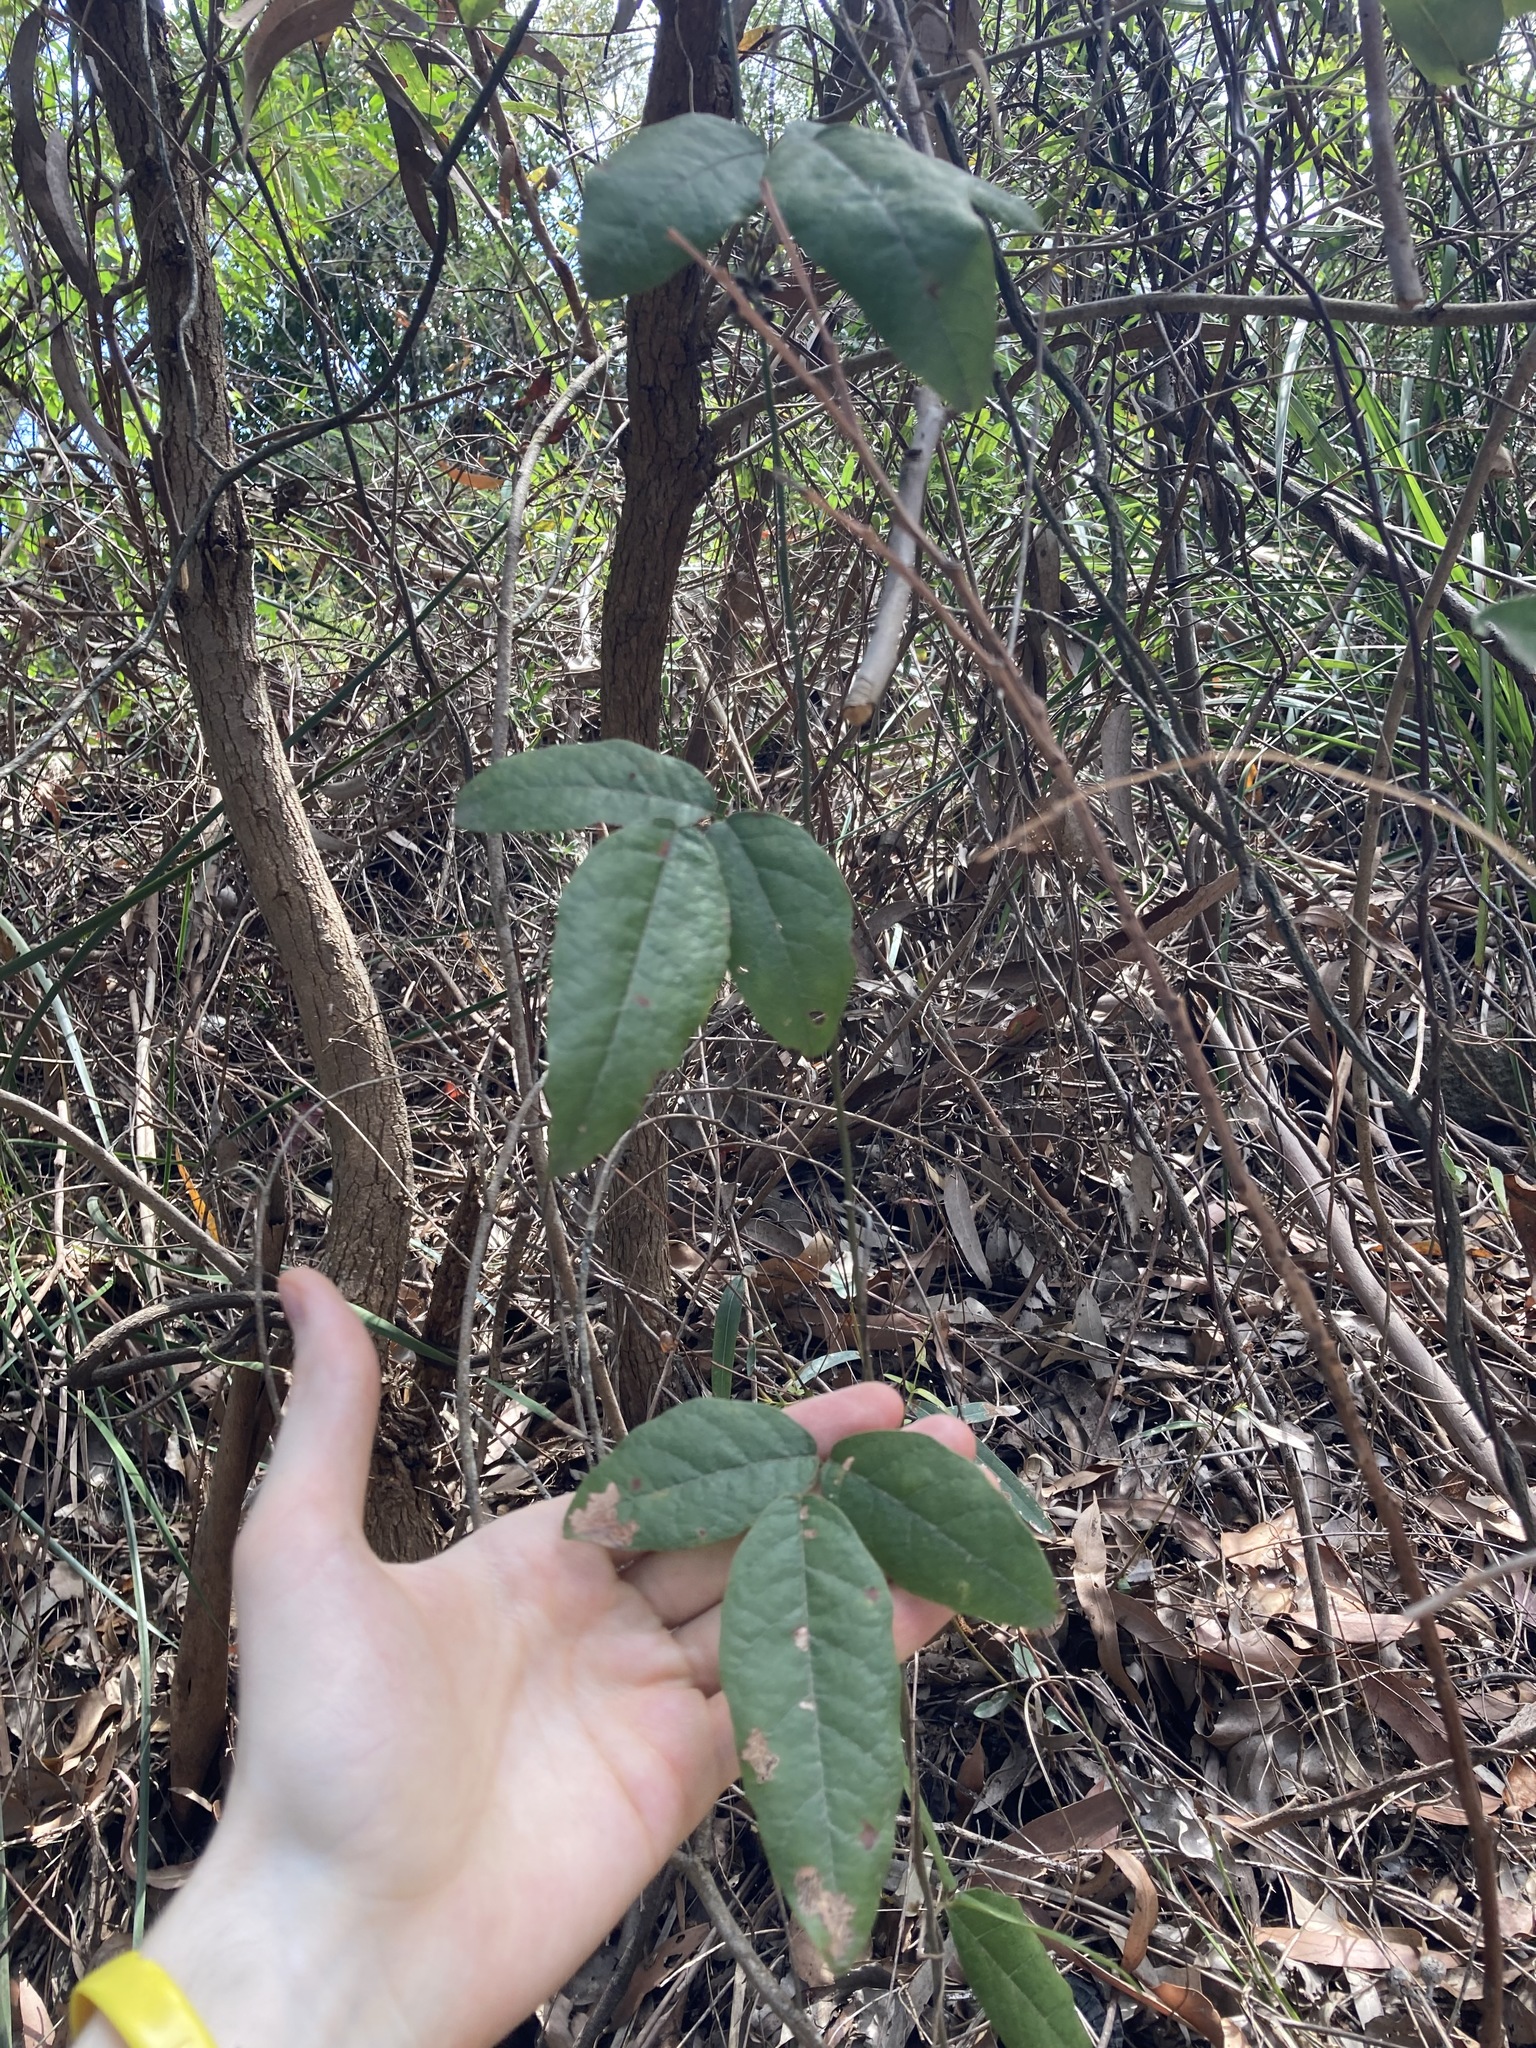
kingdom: Plantae
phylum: Tracheophyta
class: Magnoliopsida
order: Fabales
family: Fabaceae
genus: Kennedia
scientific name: Kennedia rubicunda
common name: Red kennedy-pea
